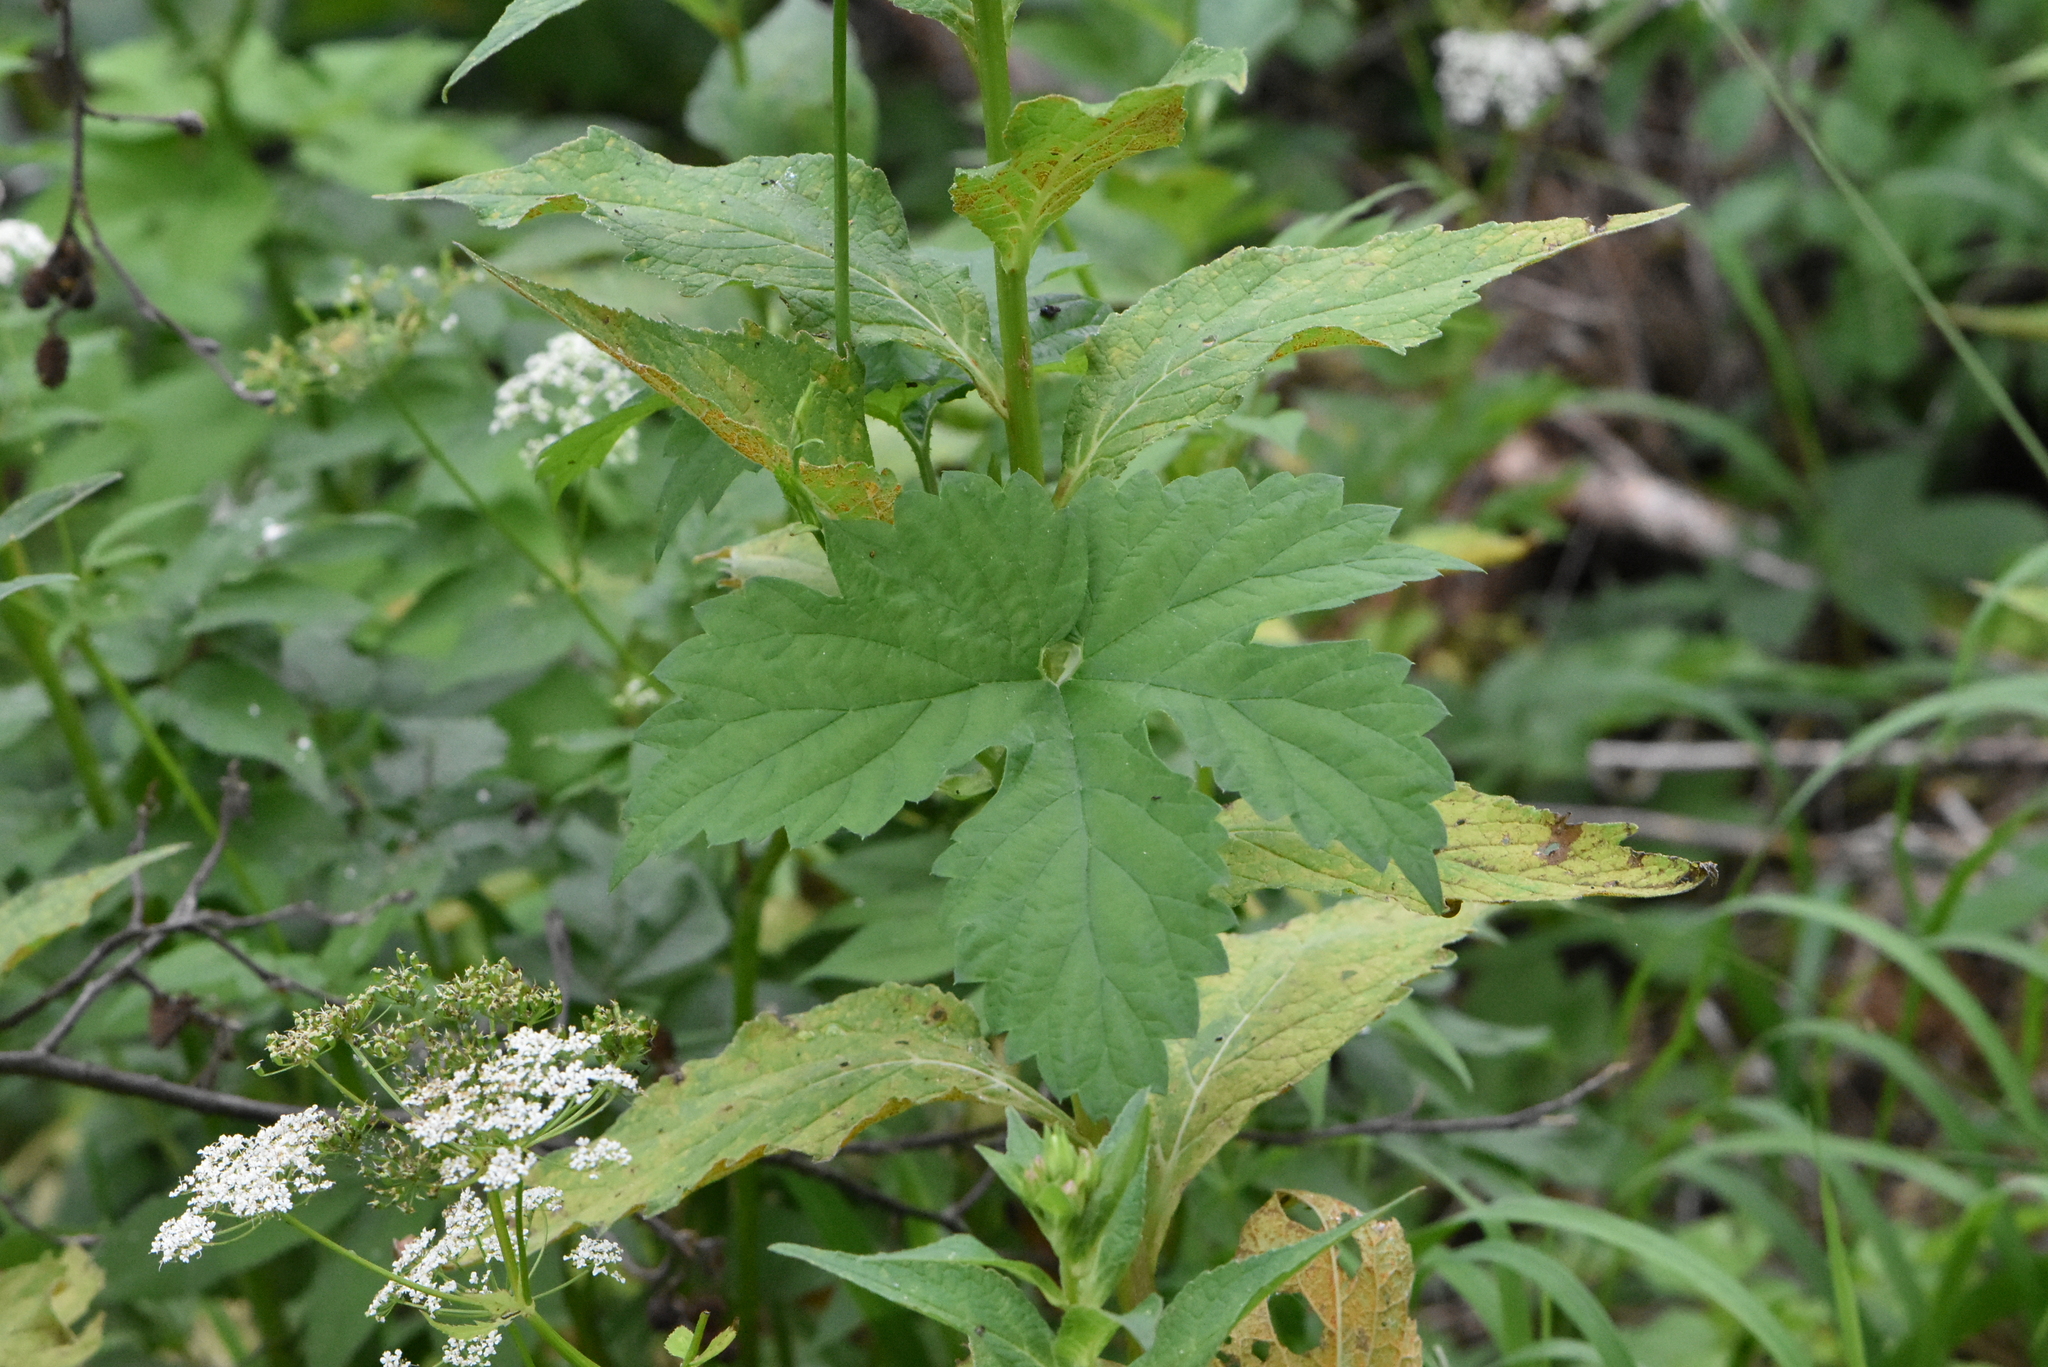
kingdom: Plantae
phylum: Tracheophyta
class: Magnoliopsida
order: Rosales
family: Cannabaceae
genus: Humulus
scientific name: Humulus lupulus
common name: Hop
